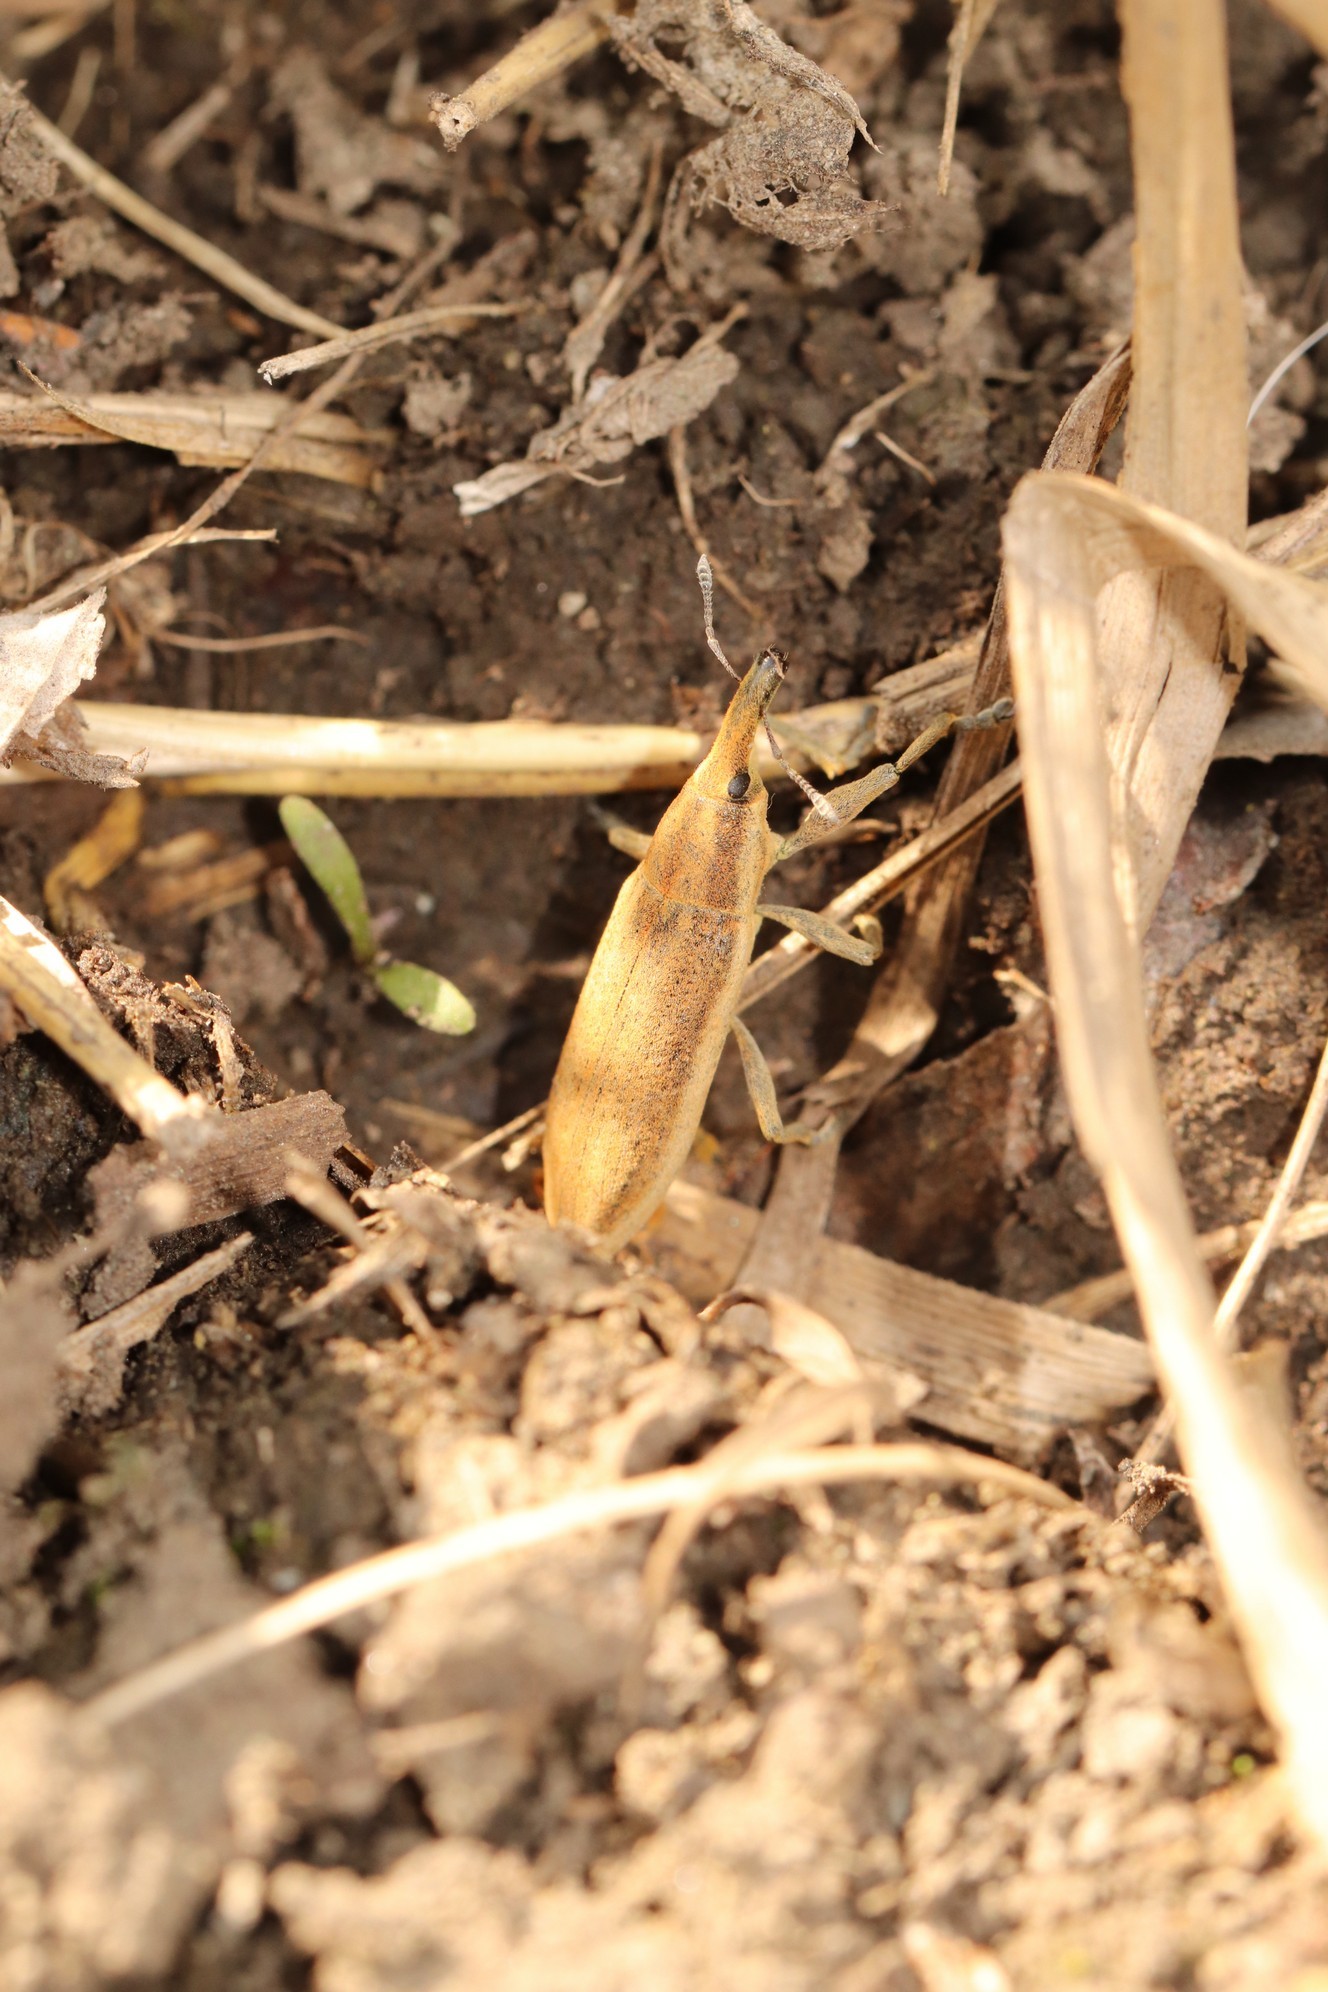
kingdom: Animalia
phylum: Arthropoda
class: Insecta
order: Coleoptera
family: Curculionidae
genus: Lixus
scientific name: Lixus iridis
